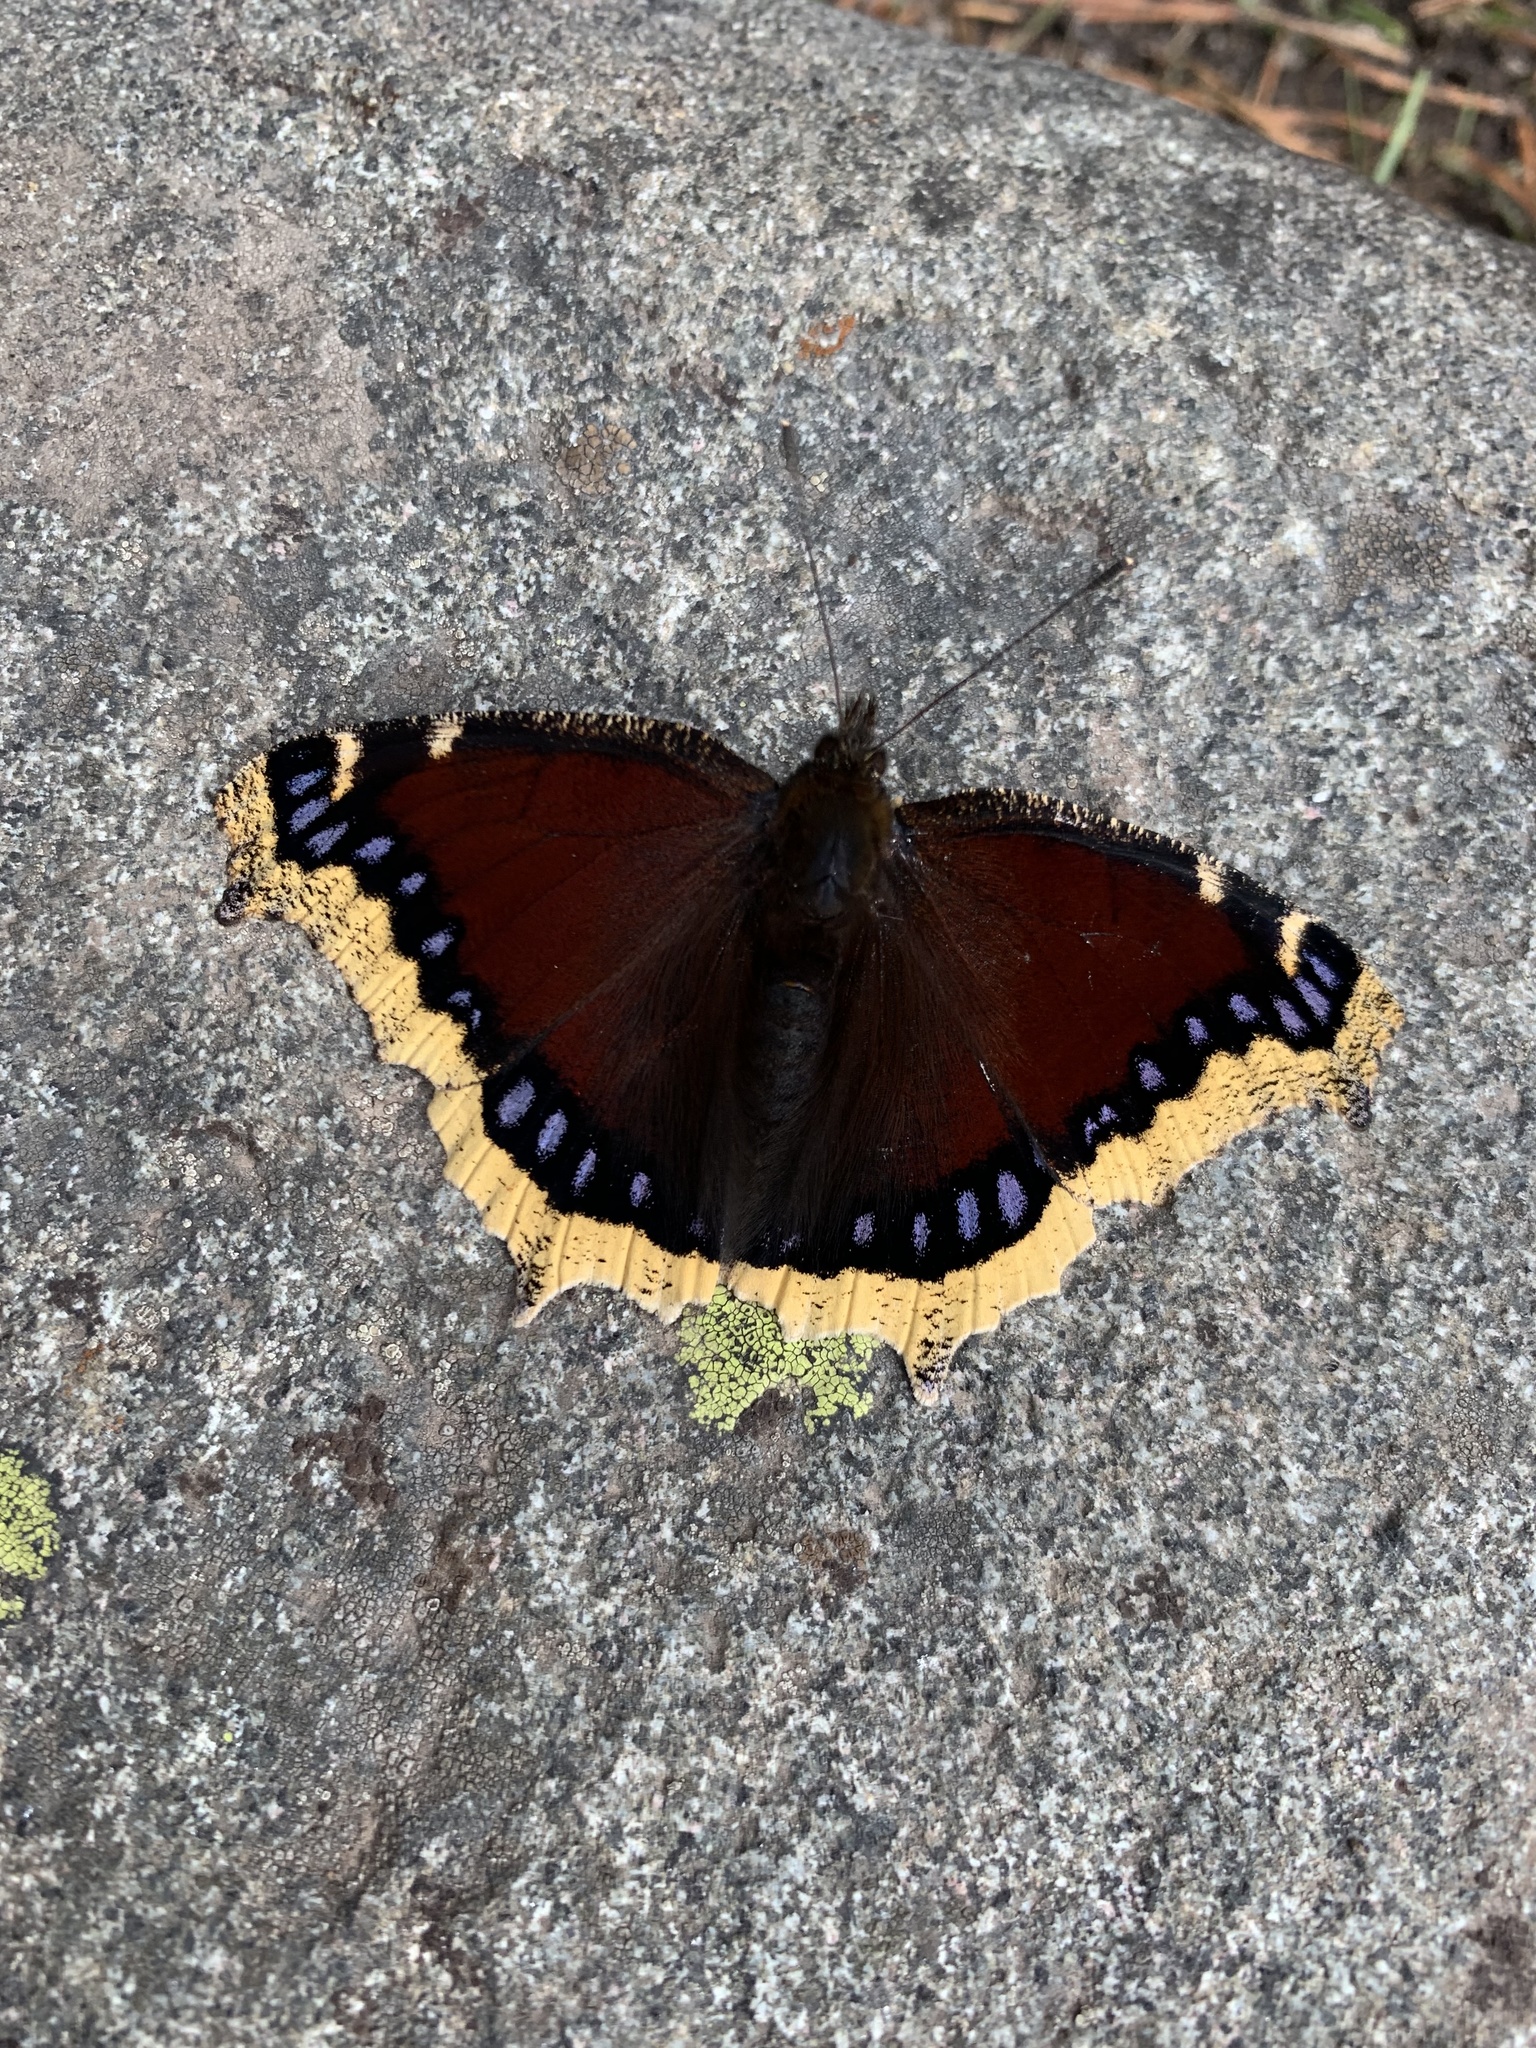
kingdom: Animalia
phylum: Arthropoda
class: Insecta
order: Lepidoptera
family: Nymphalidae
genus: Nymphalis
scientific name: Nymphalis antiopa
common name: Camberwell beauty
